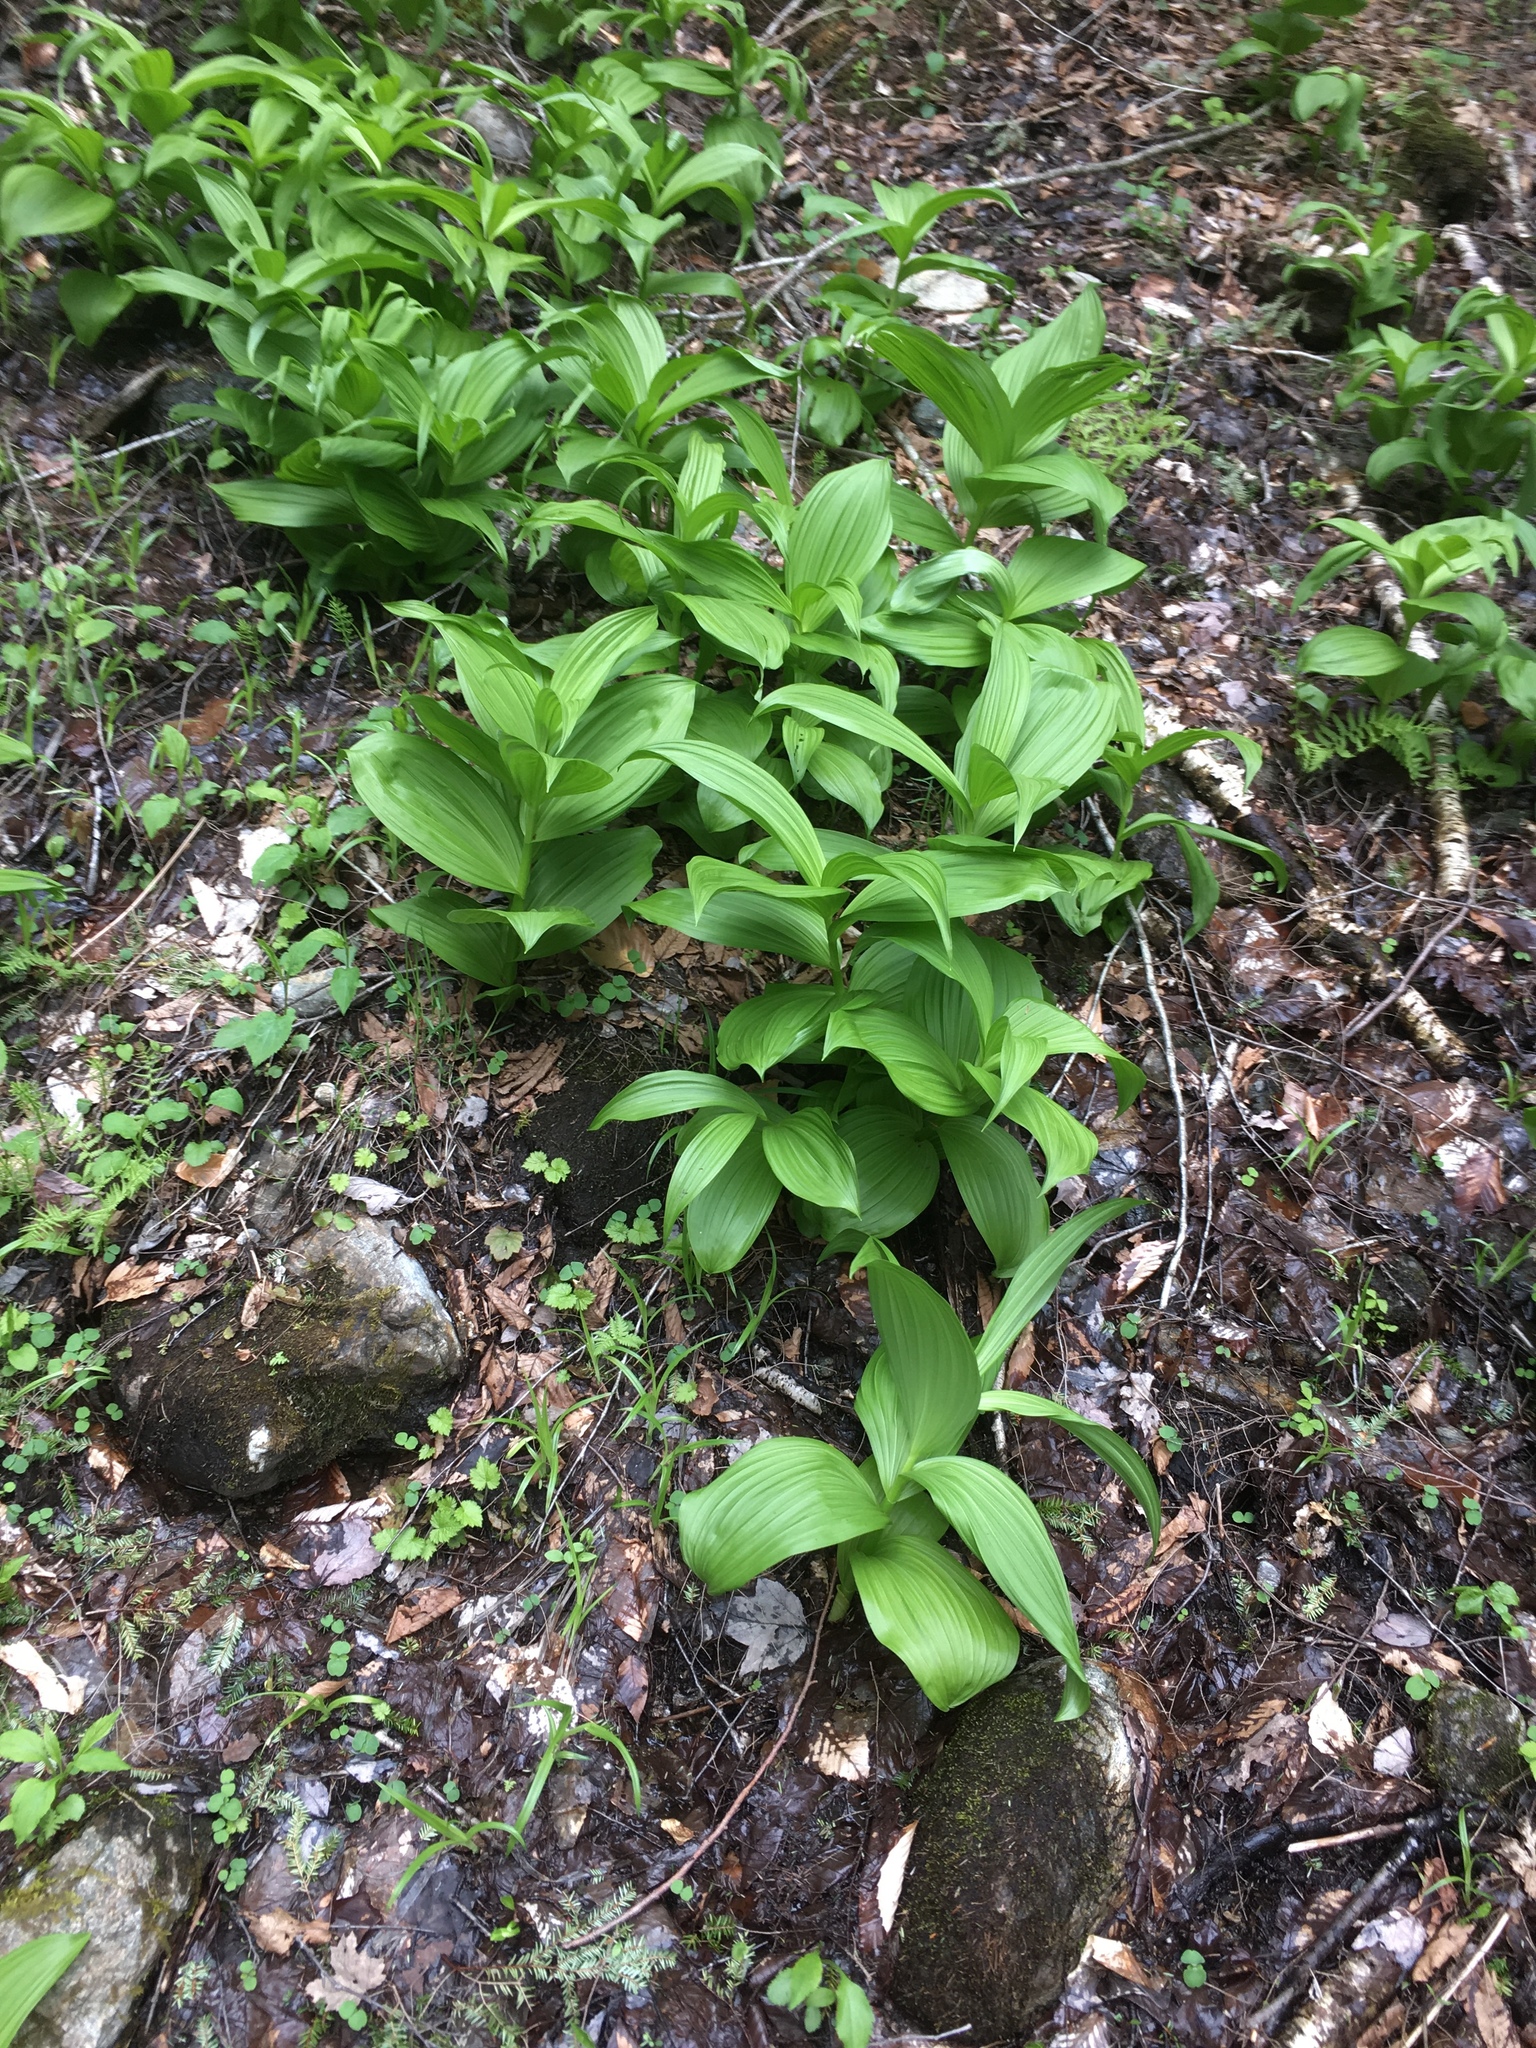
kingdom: Plantae
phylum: Tracheophyta
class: Liliopsida
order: Liliales
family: Melanthiaceae
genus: Veratrum
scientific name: Veratrum viride
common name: American false hellebore
